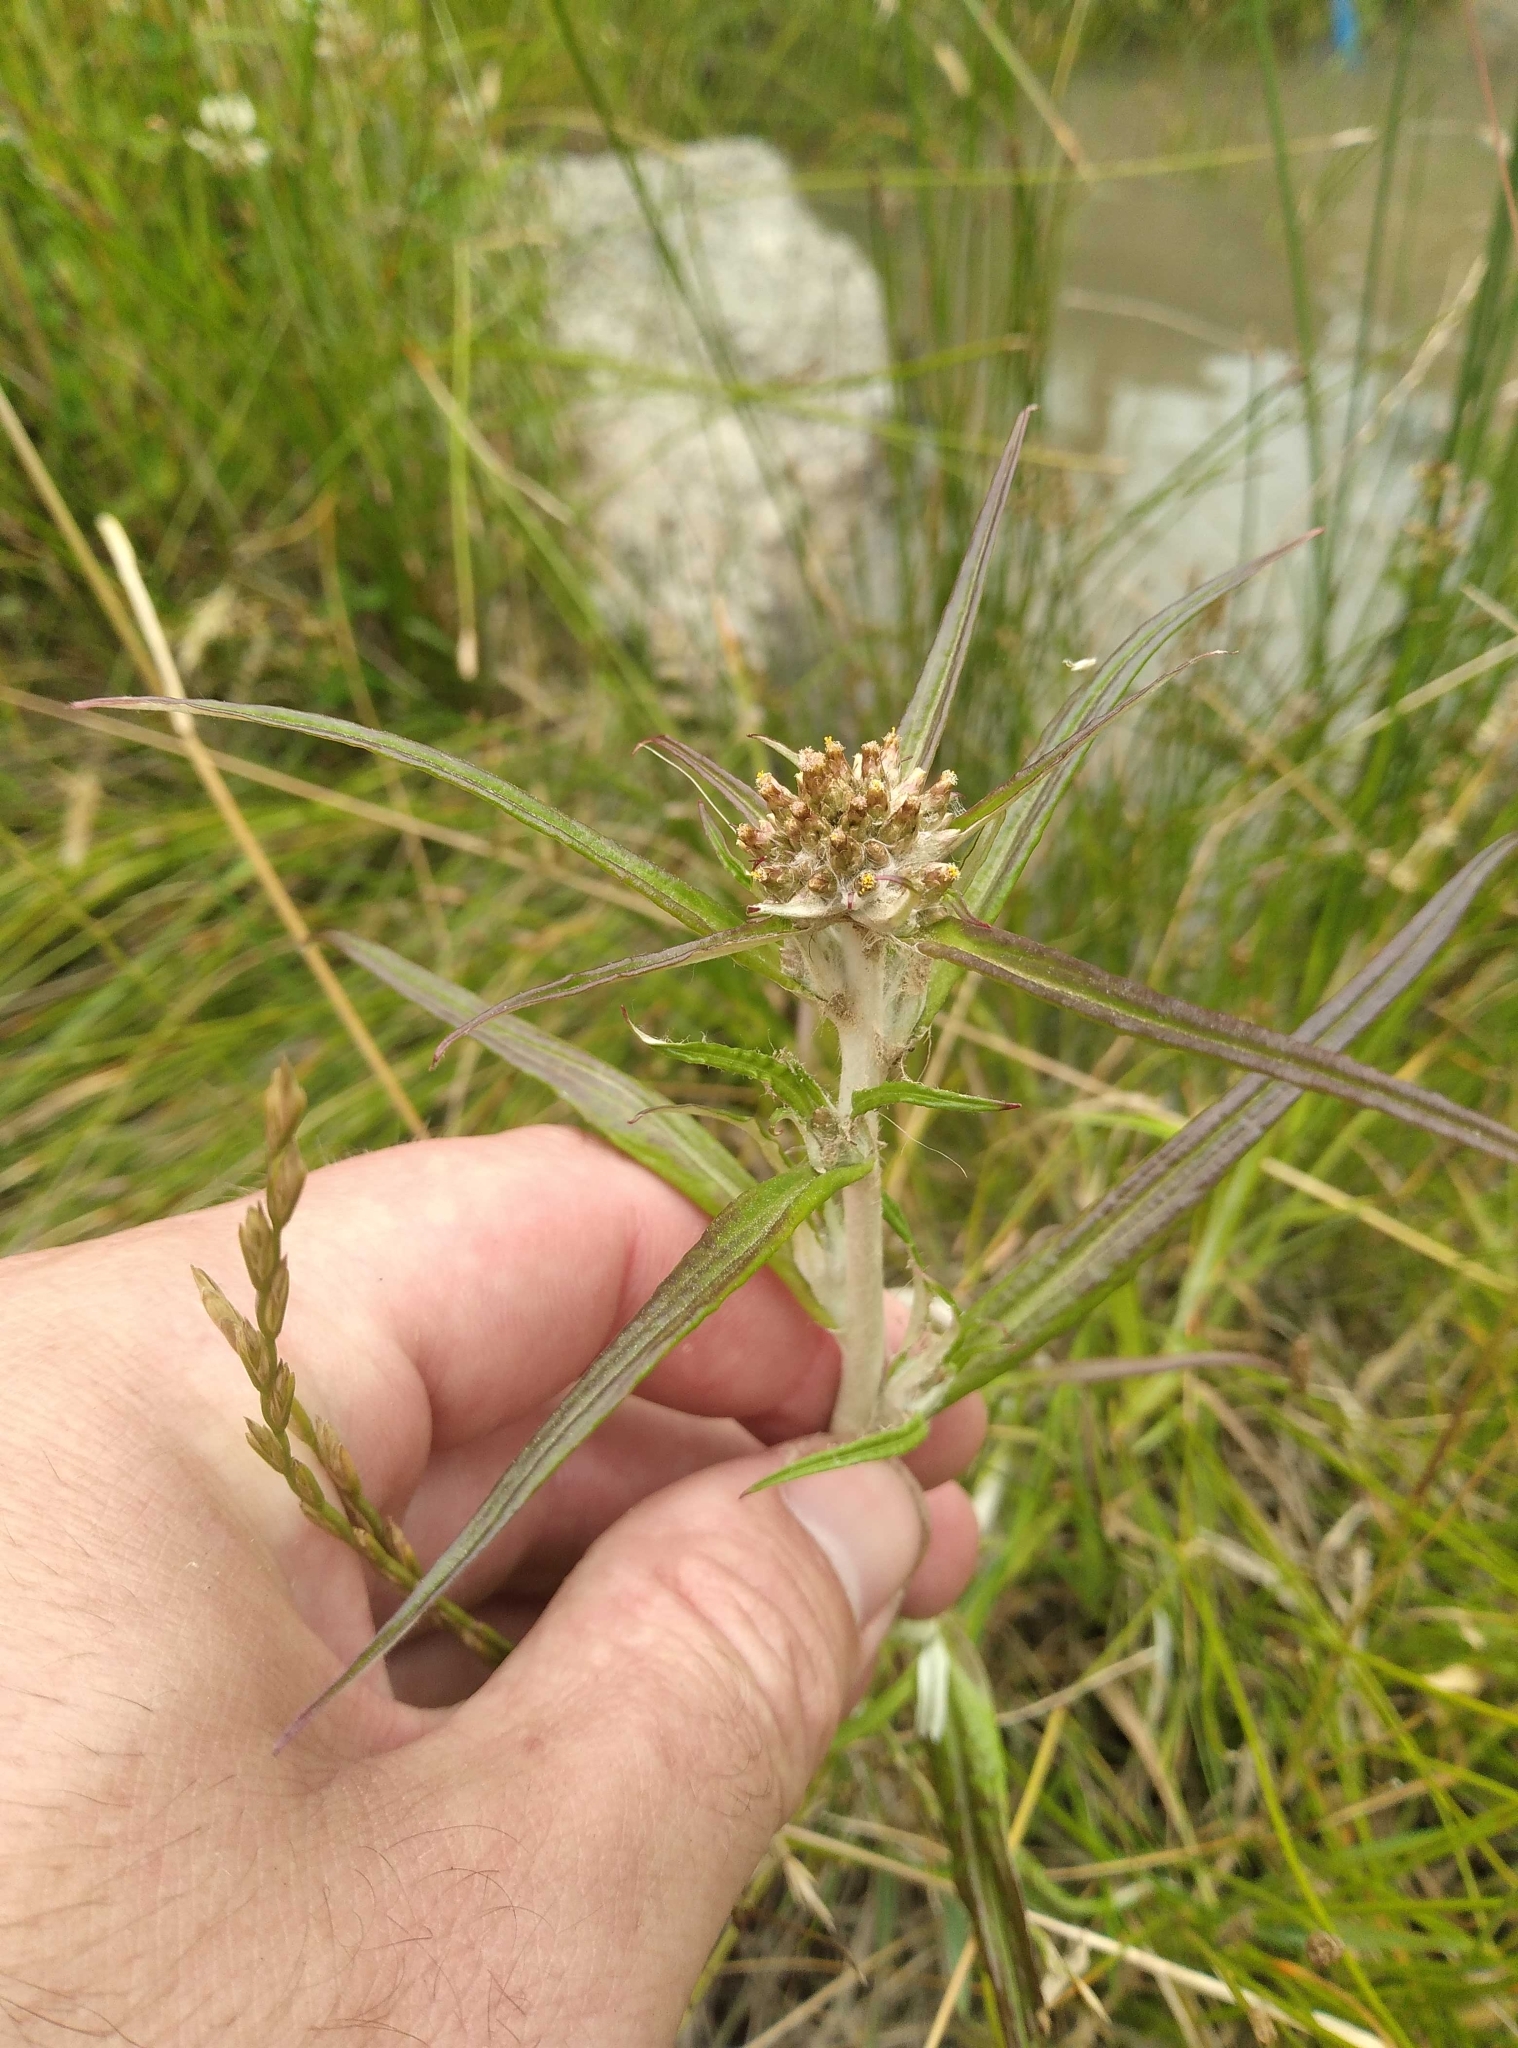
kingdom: Plantae
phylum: Tracheophyta
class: Magnoliopsida
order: Asterales
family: Asteraceae
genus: Euchiton
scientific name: Euchiton involucratus
